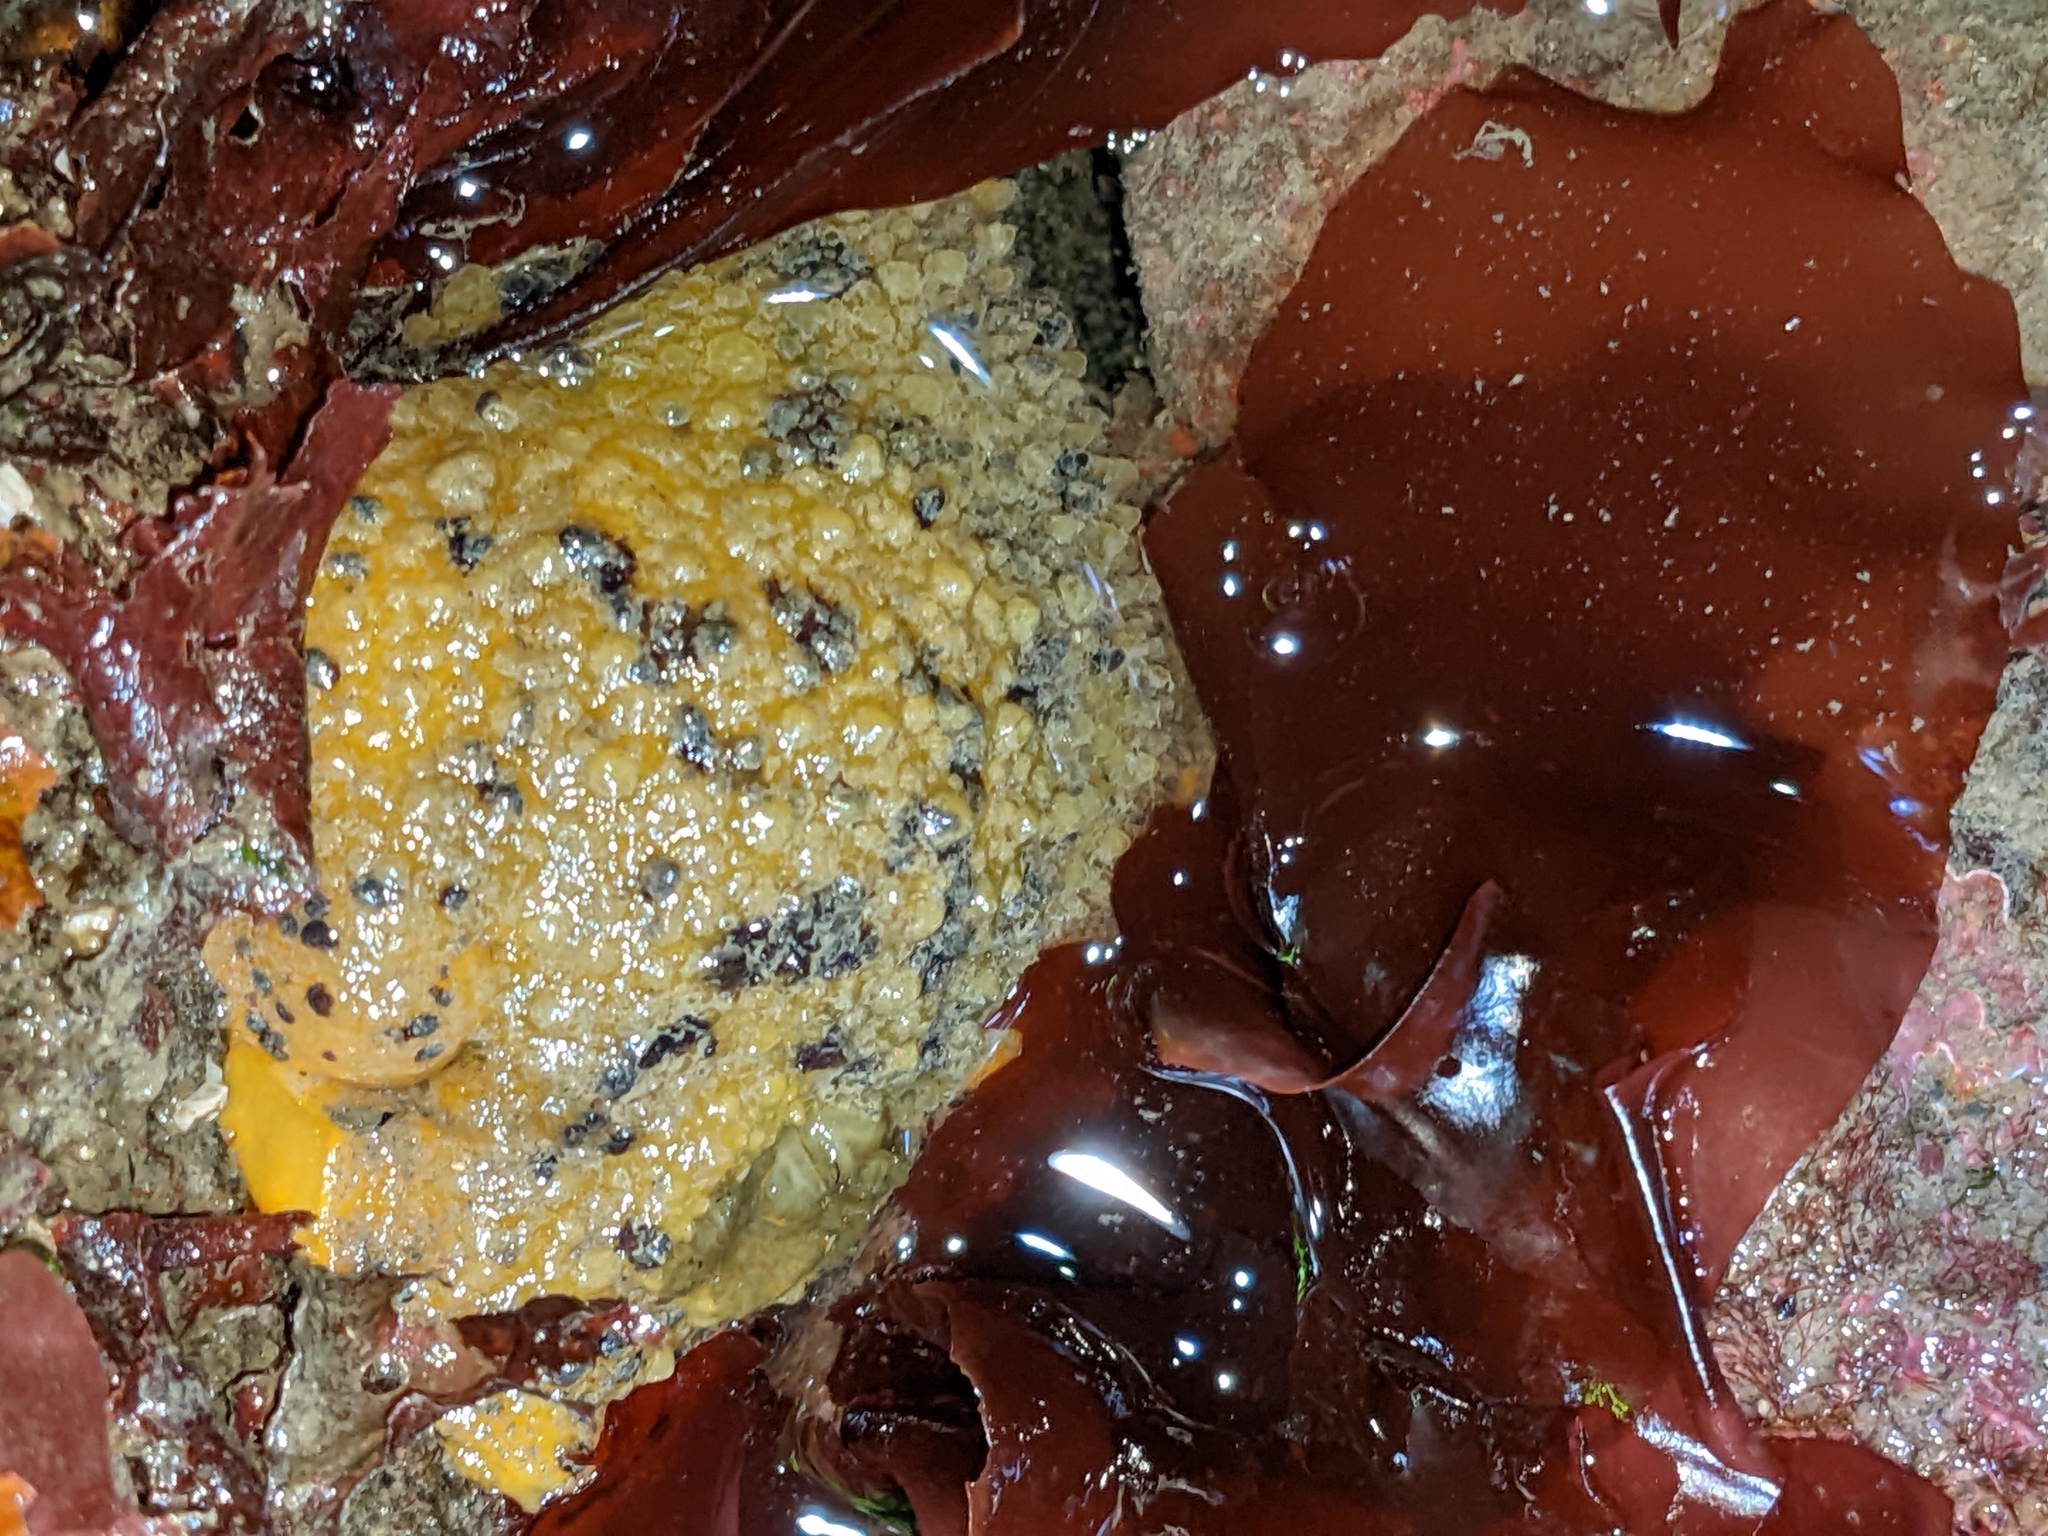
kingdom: Animalia
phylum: Mollusca
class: Gastropoda
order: Nudibranchia
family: Dorididae
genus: Doris
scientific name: Doris montereyensis
